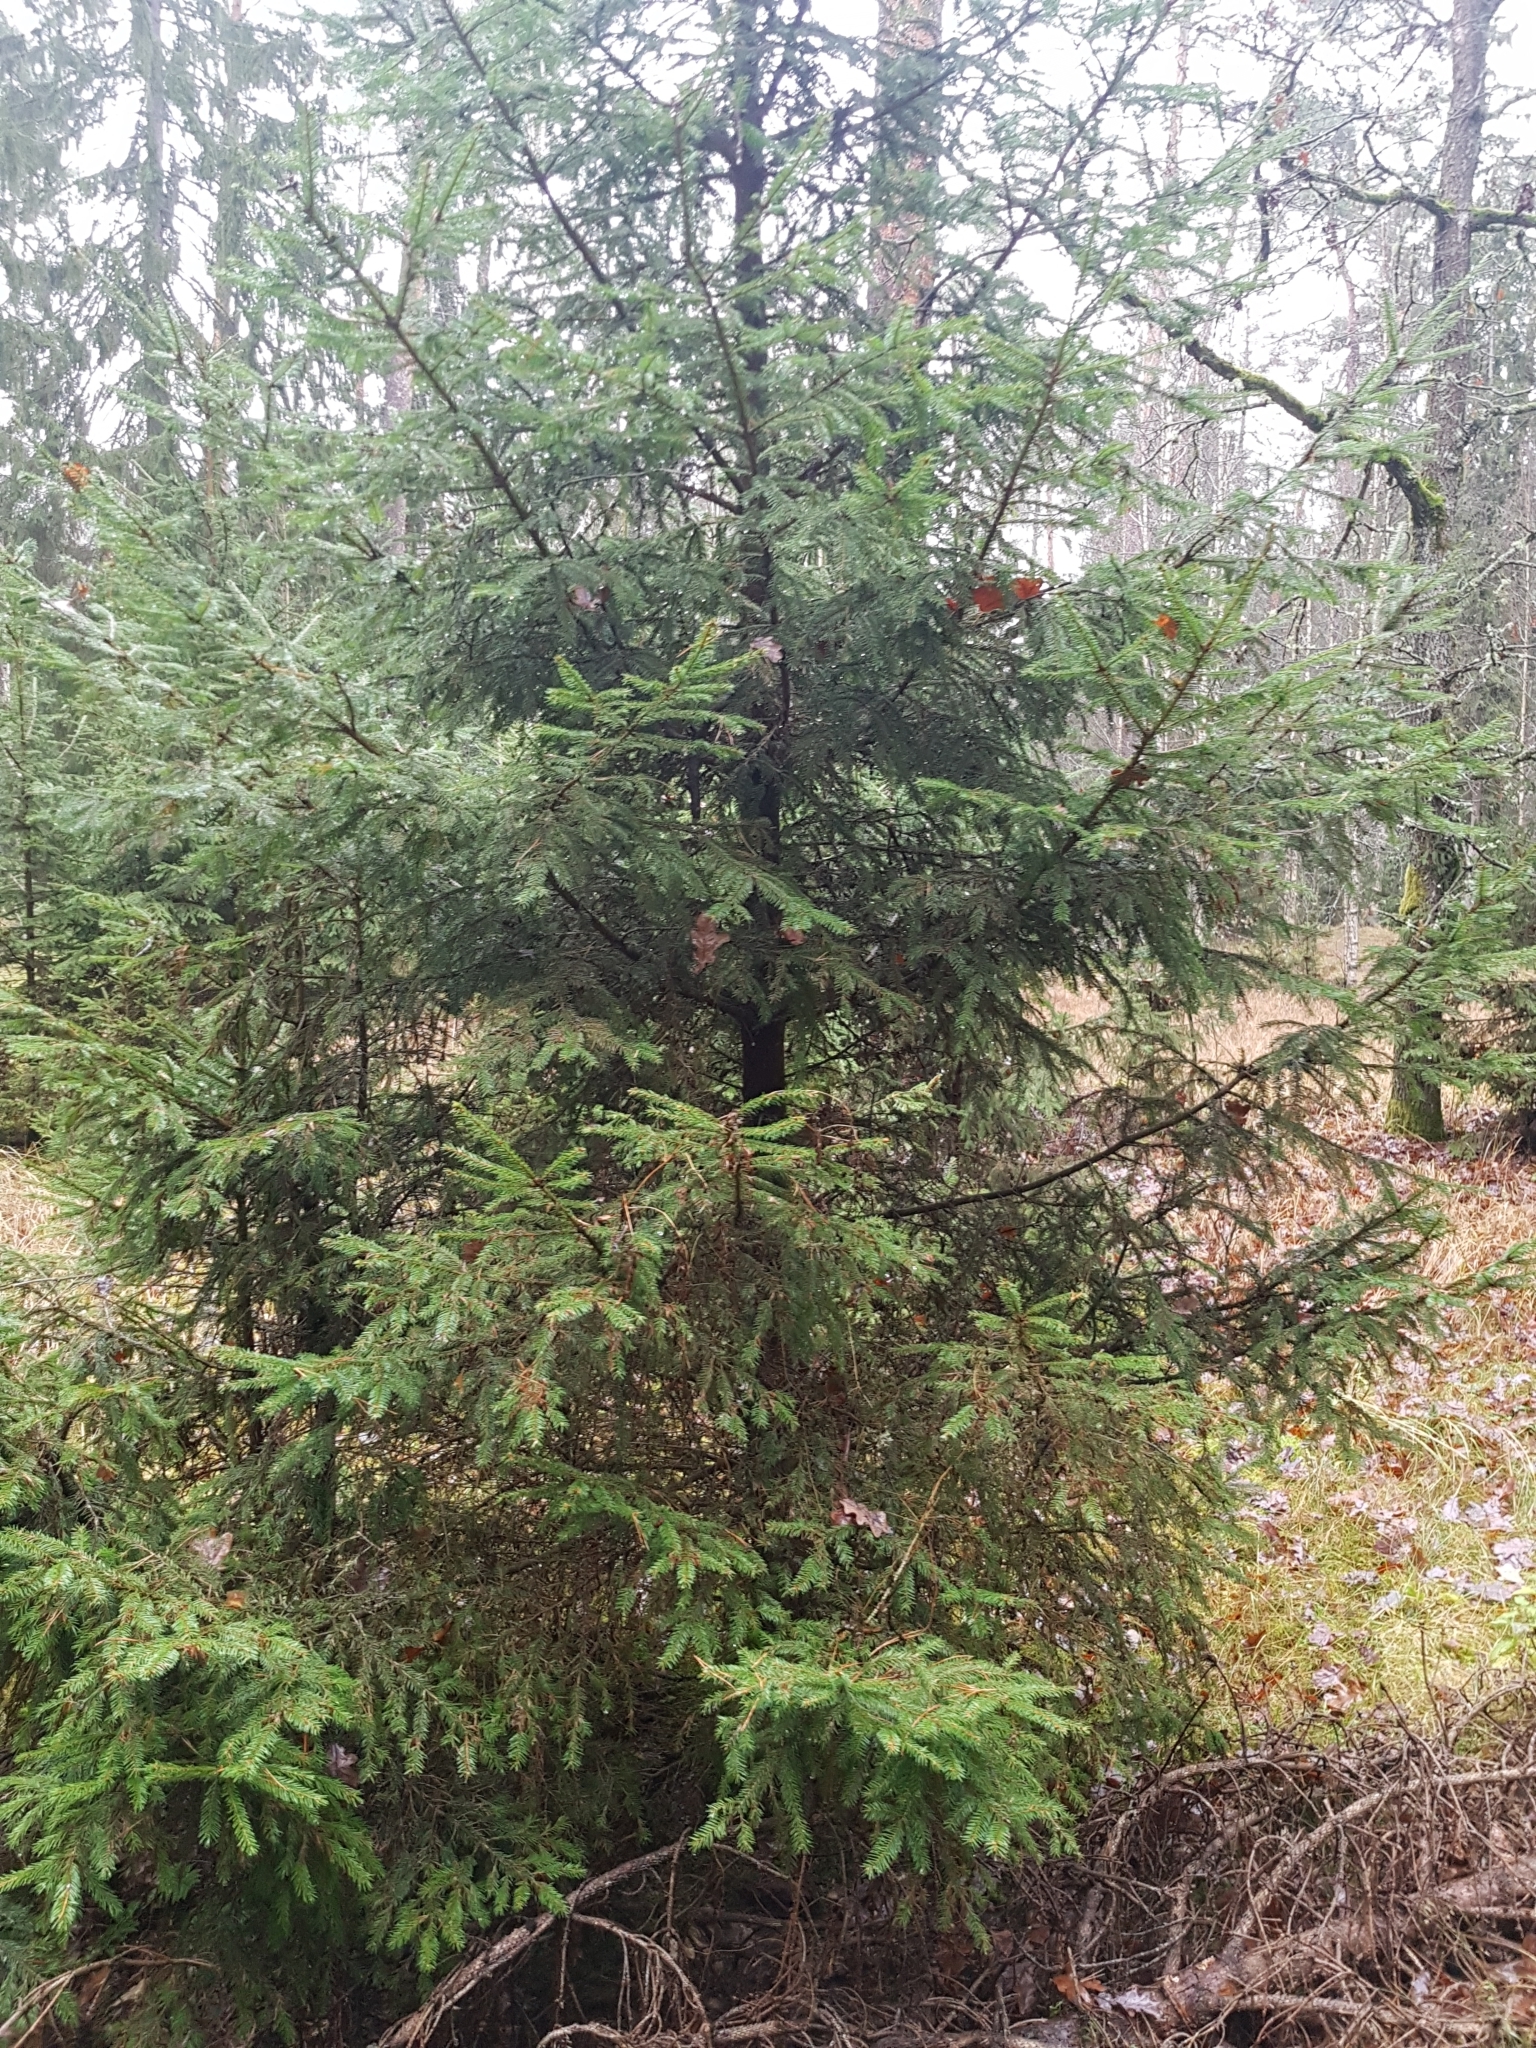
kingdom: Plantae
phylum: Tracheophyta
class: Pinopsida
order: Pinales
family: Pinaceae
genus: Picea
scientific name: Picea abies
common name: Norway spruce
